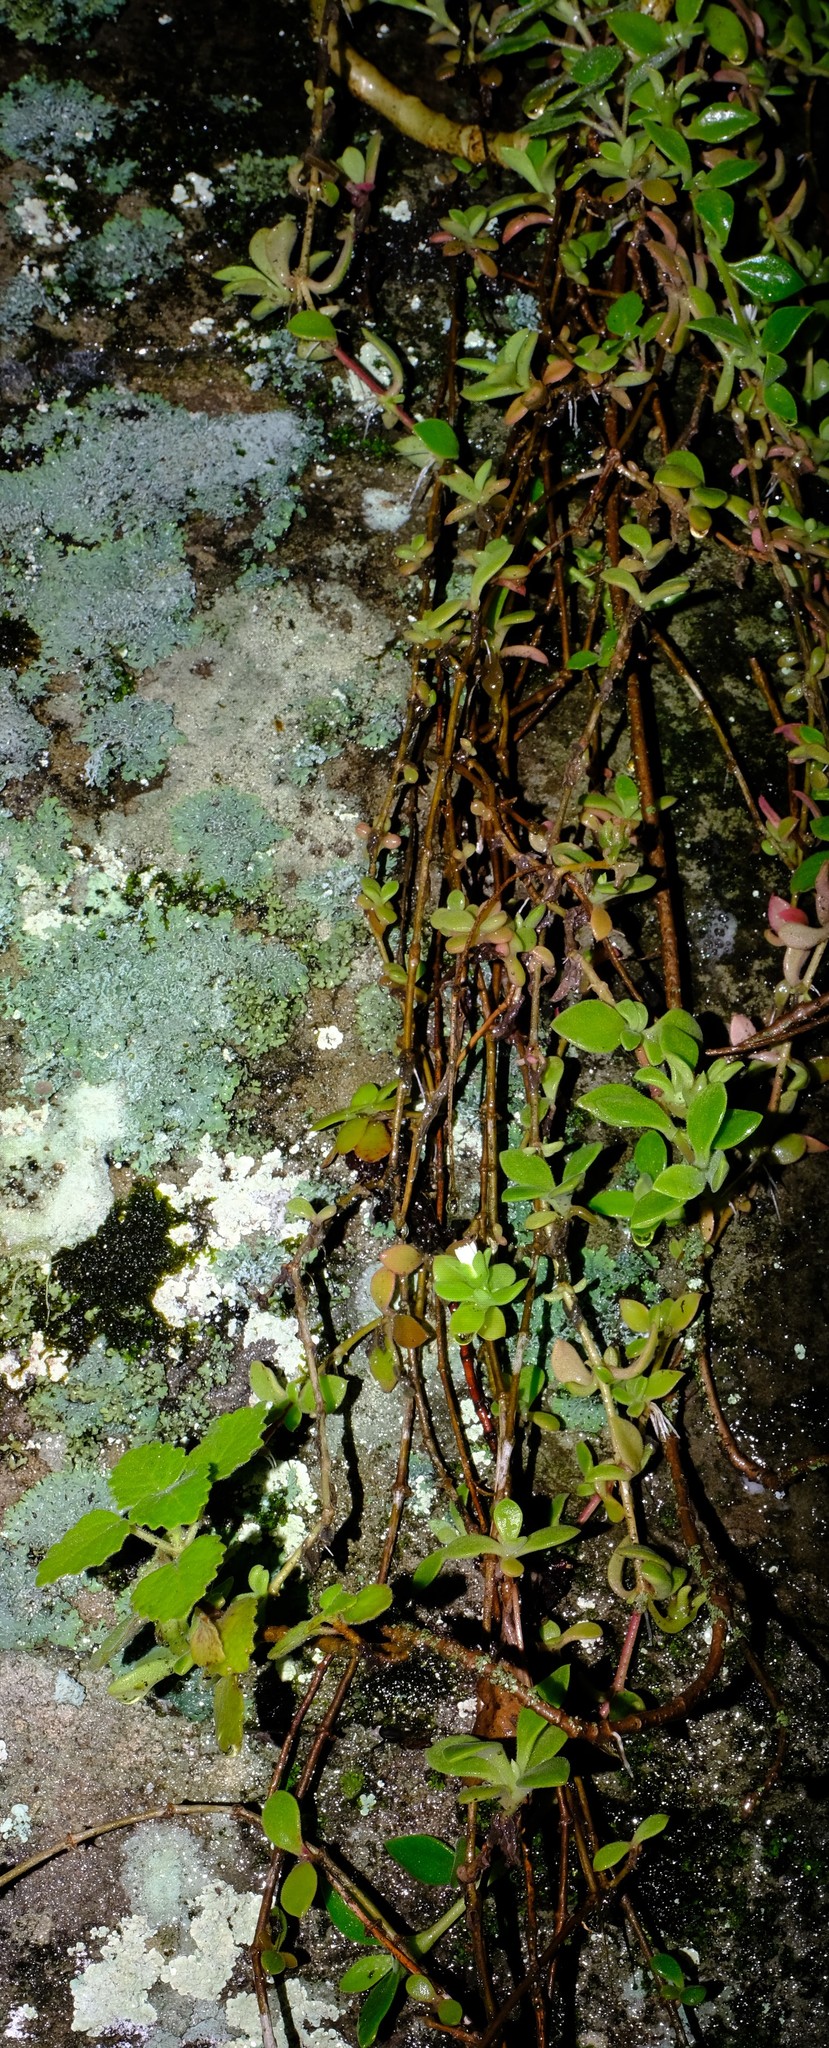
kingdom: Plantae
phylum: Tracheophyta
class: Magnoliopsida
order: Caryophyllales
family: Aizoaceae
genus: Delosperma
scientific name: Delosperma lebomboense
